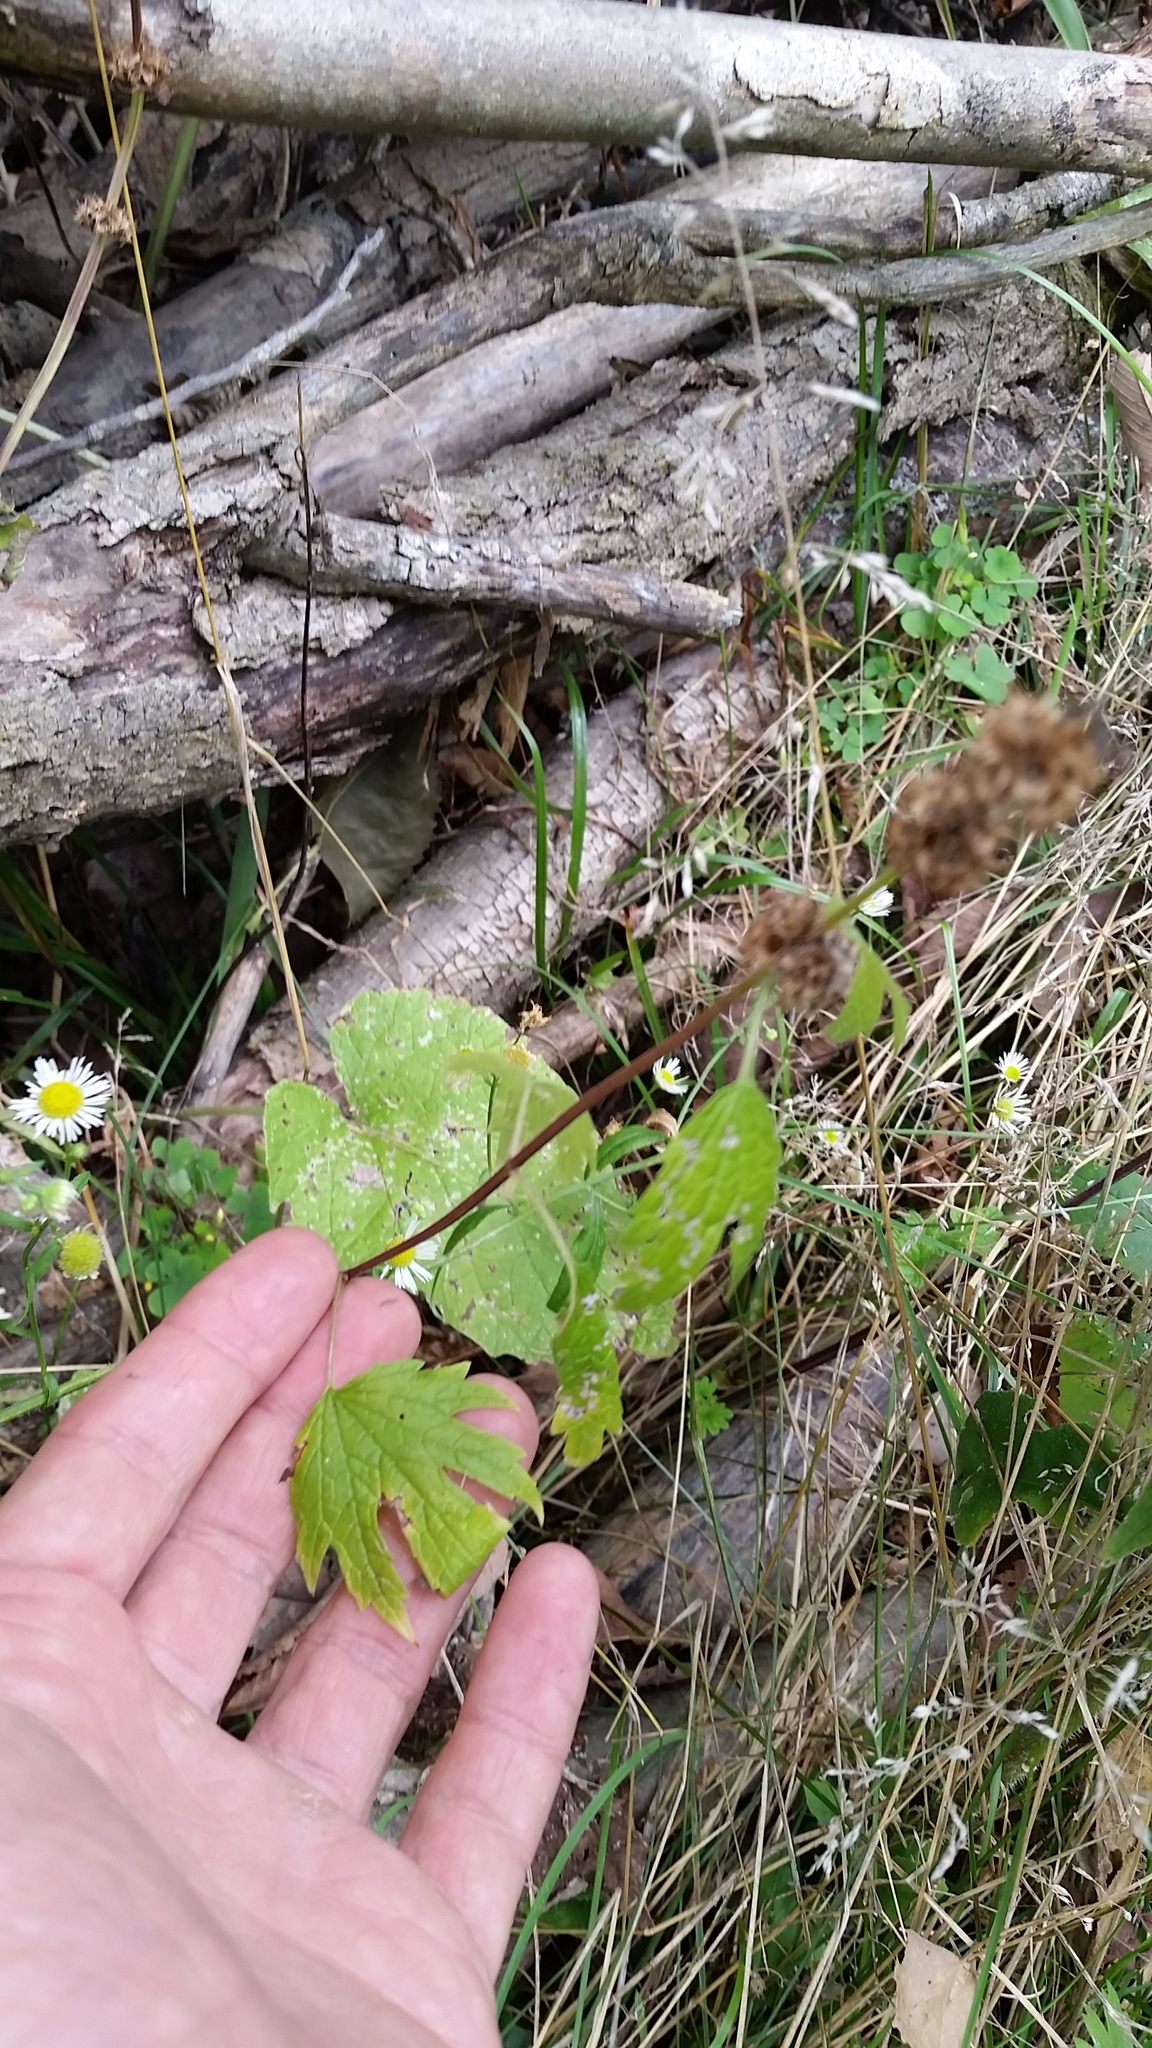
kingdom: Plantae
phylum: Tracheophyta
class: Magnoliopsida
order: Lamiales
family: Lamiaceae
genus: Leonurus
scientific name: Leonurus cardiaca
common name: Motherwort
